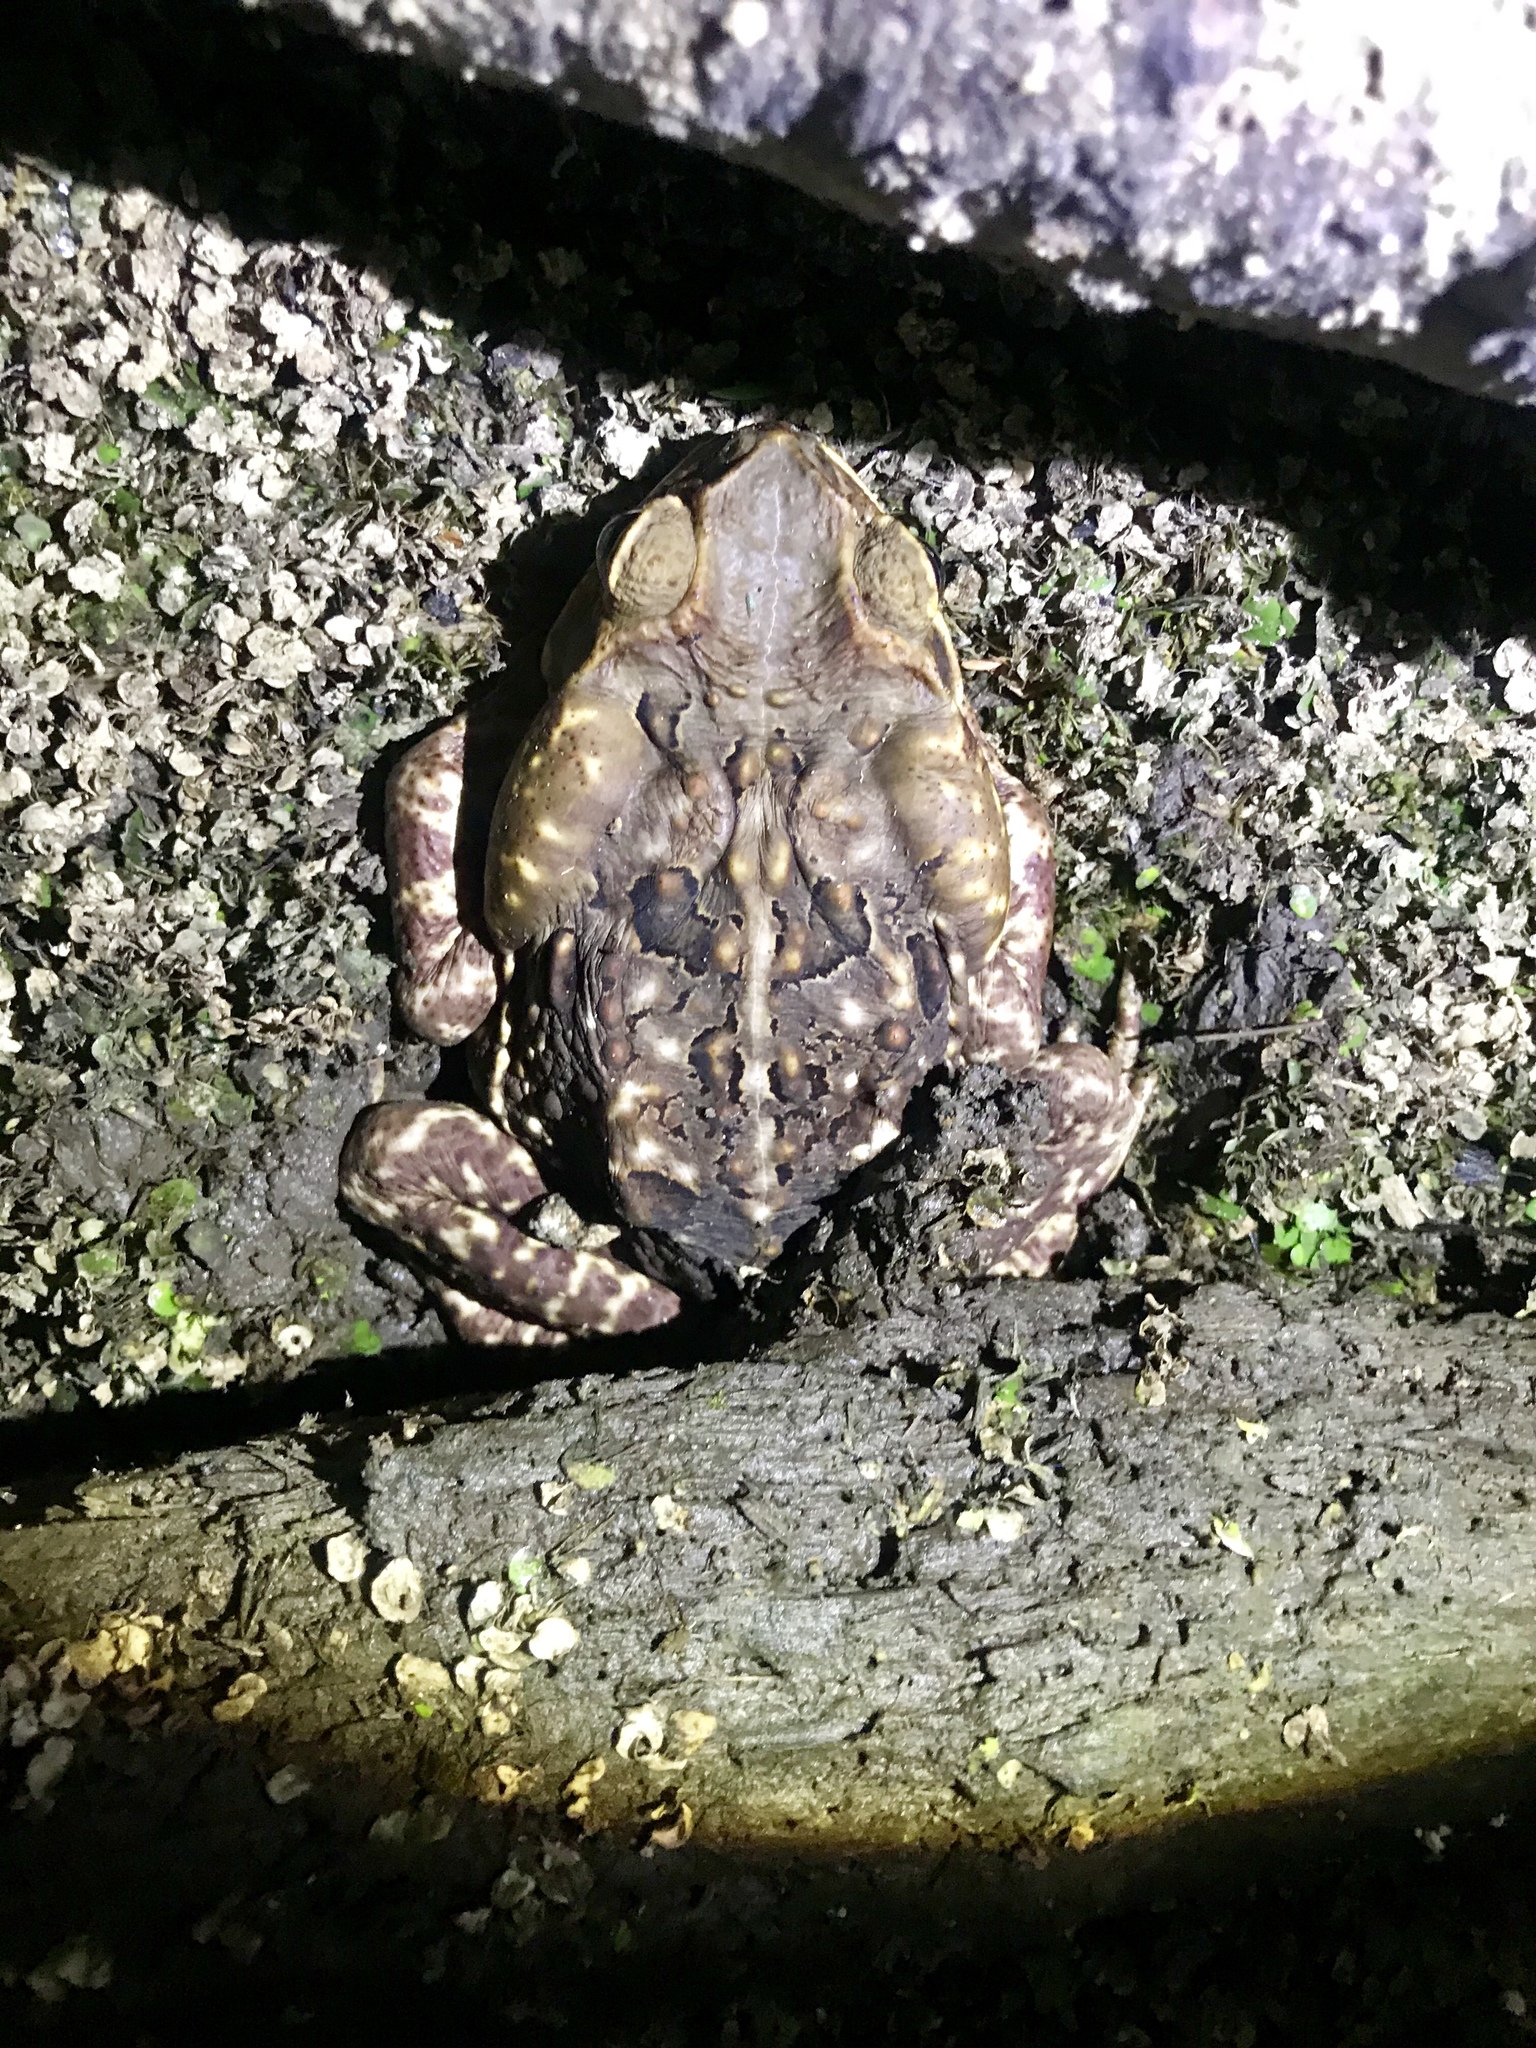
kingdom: Animalia
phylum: Chordata
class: Amphibia
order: Anura
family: Bufonidae
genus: Rhinella
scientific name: Rhinella horribilis
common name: Mesoamerican cane toad
